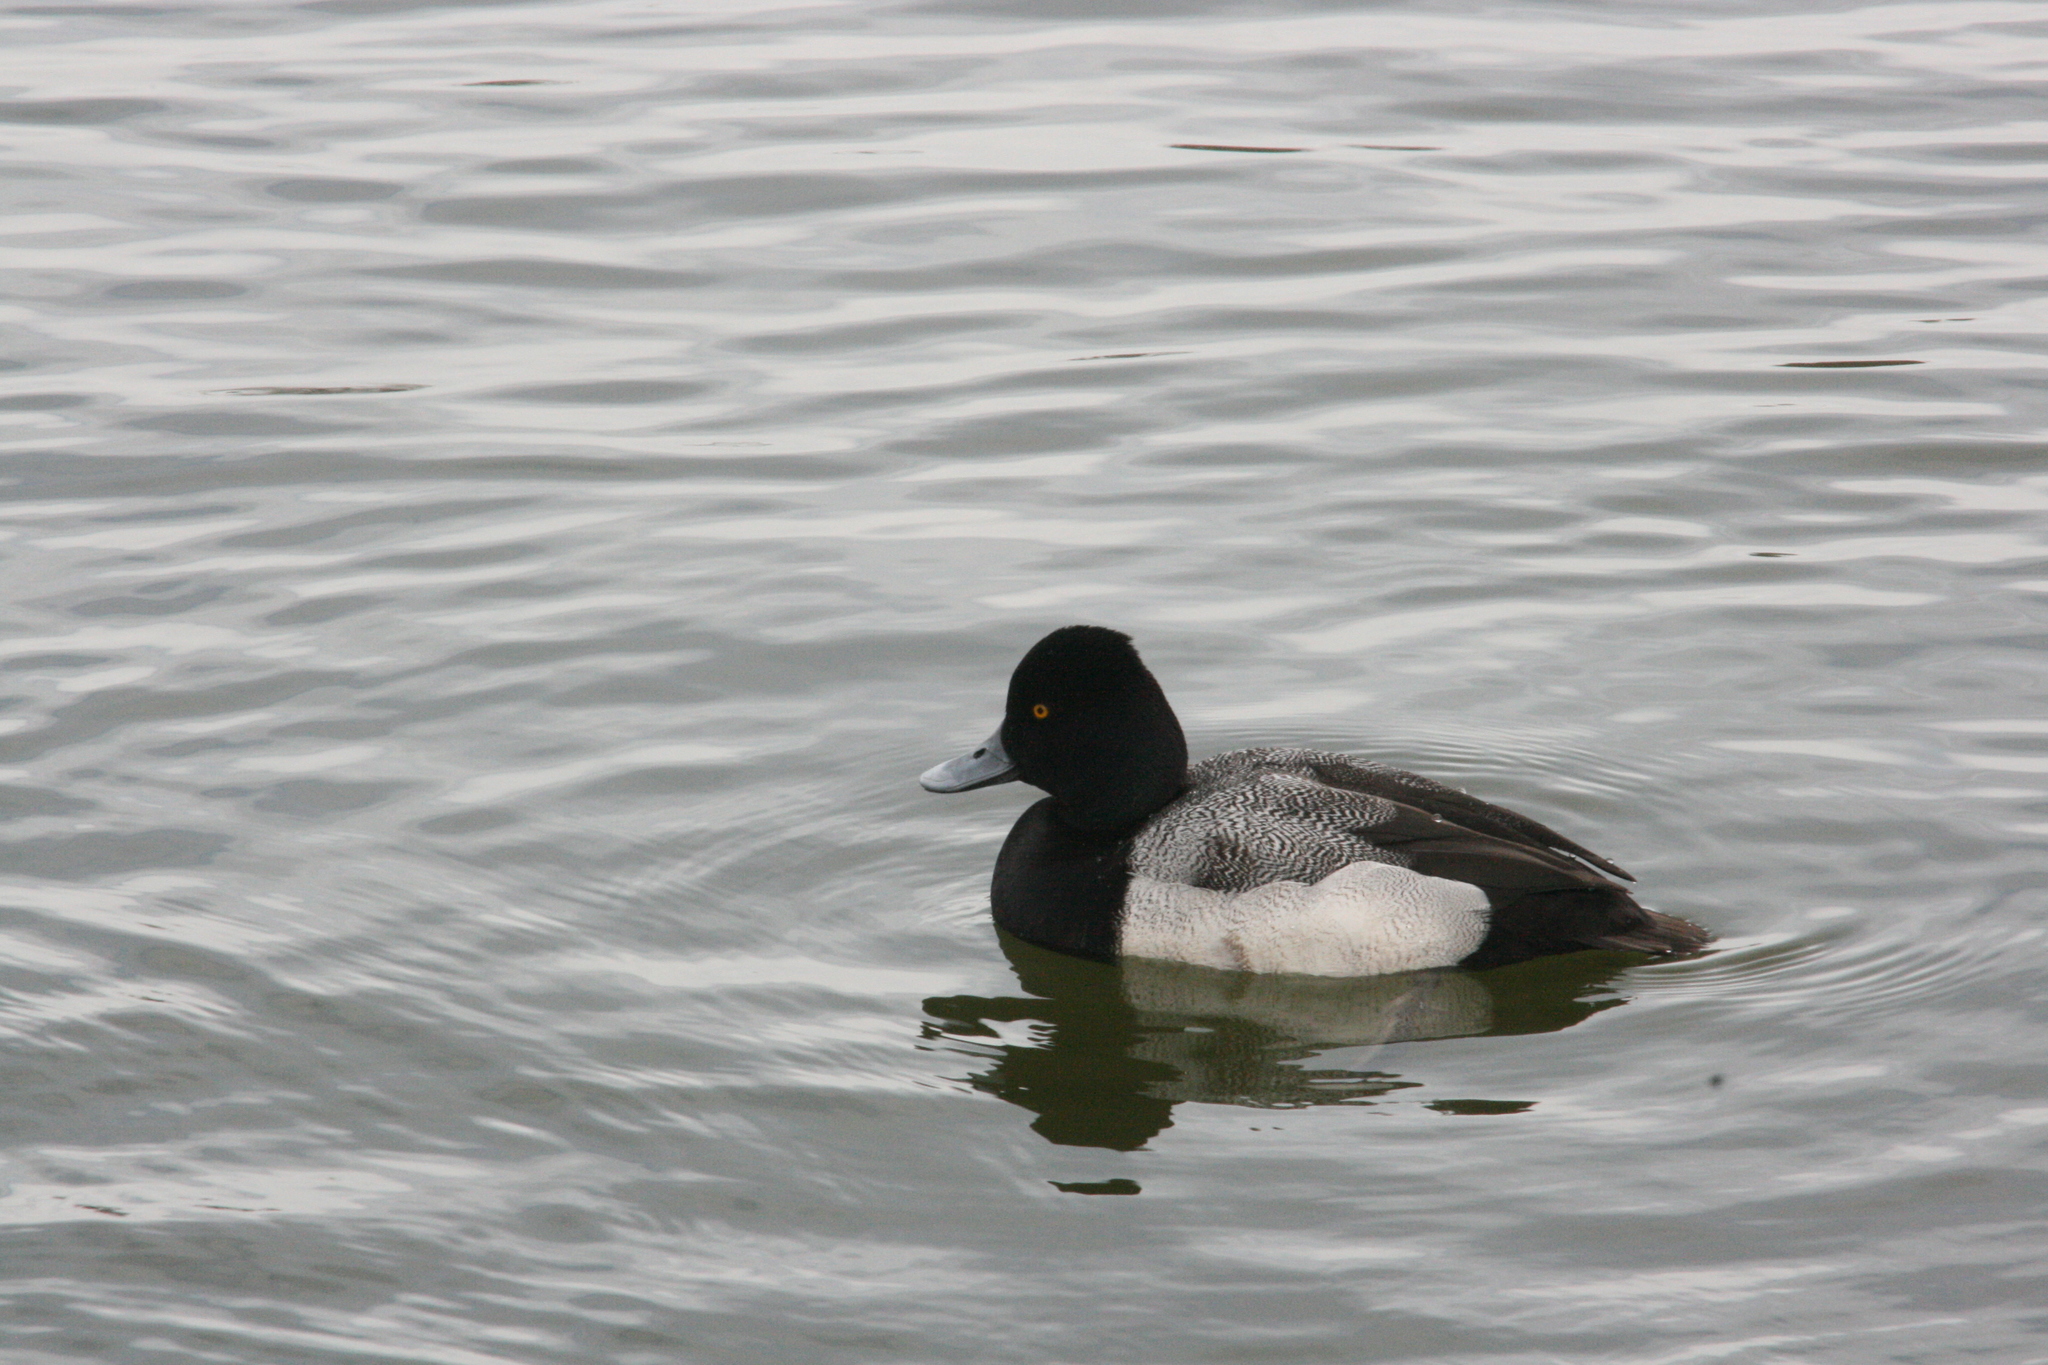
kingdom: Animalia
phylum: Chordata
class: Aves
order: Anseriformes
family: Anatidae
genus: Aythya
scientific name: Aythya affinis
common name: Lesser scaup
